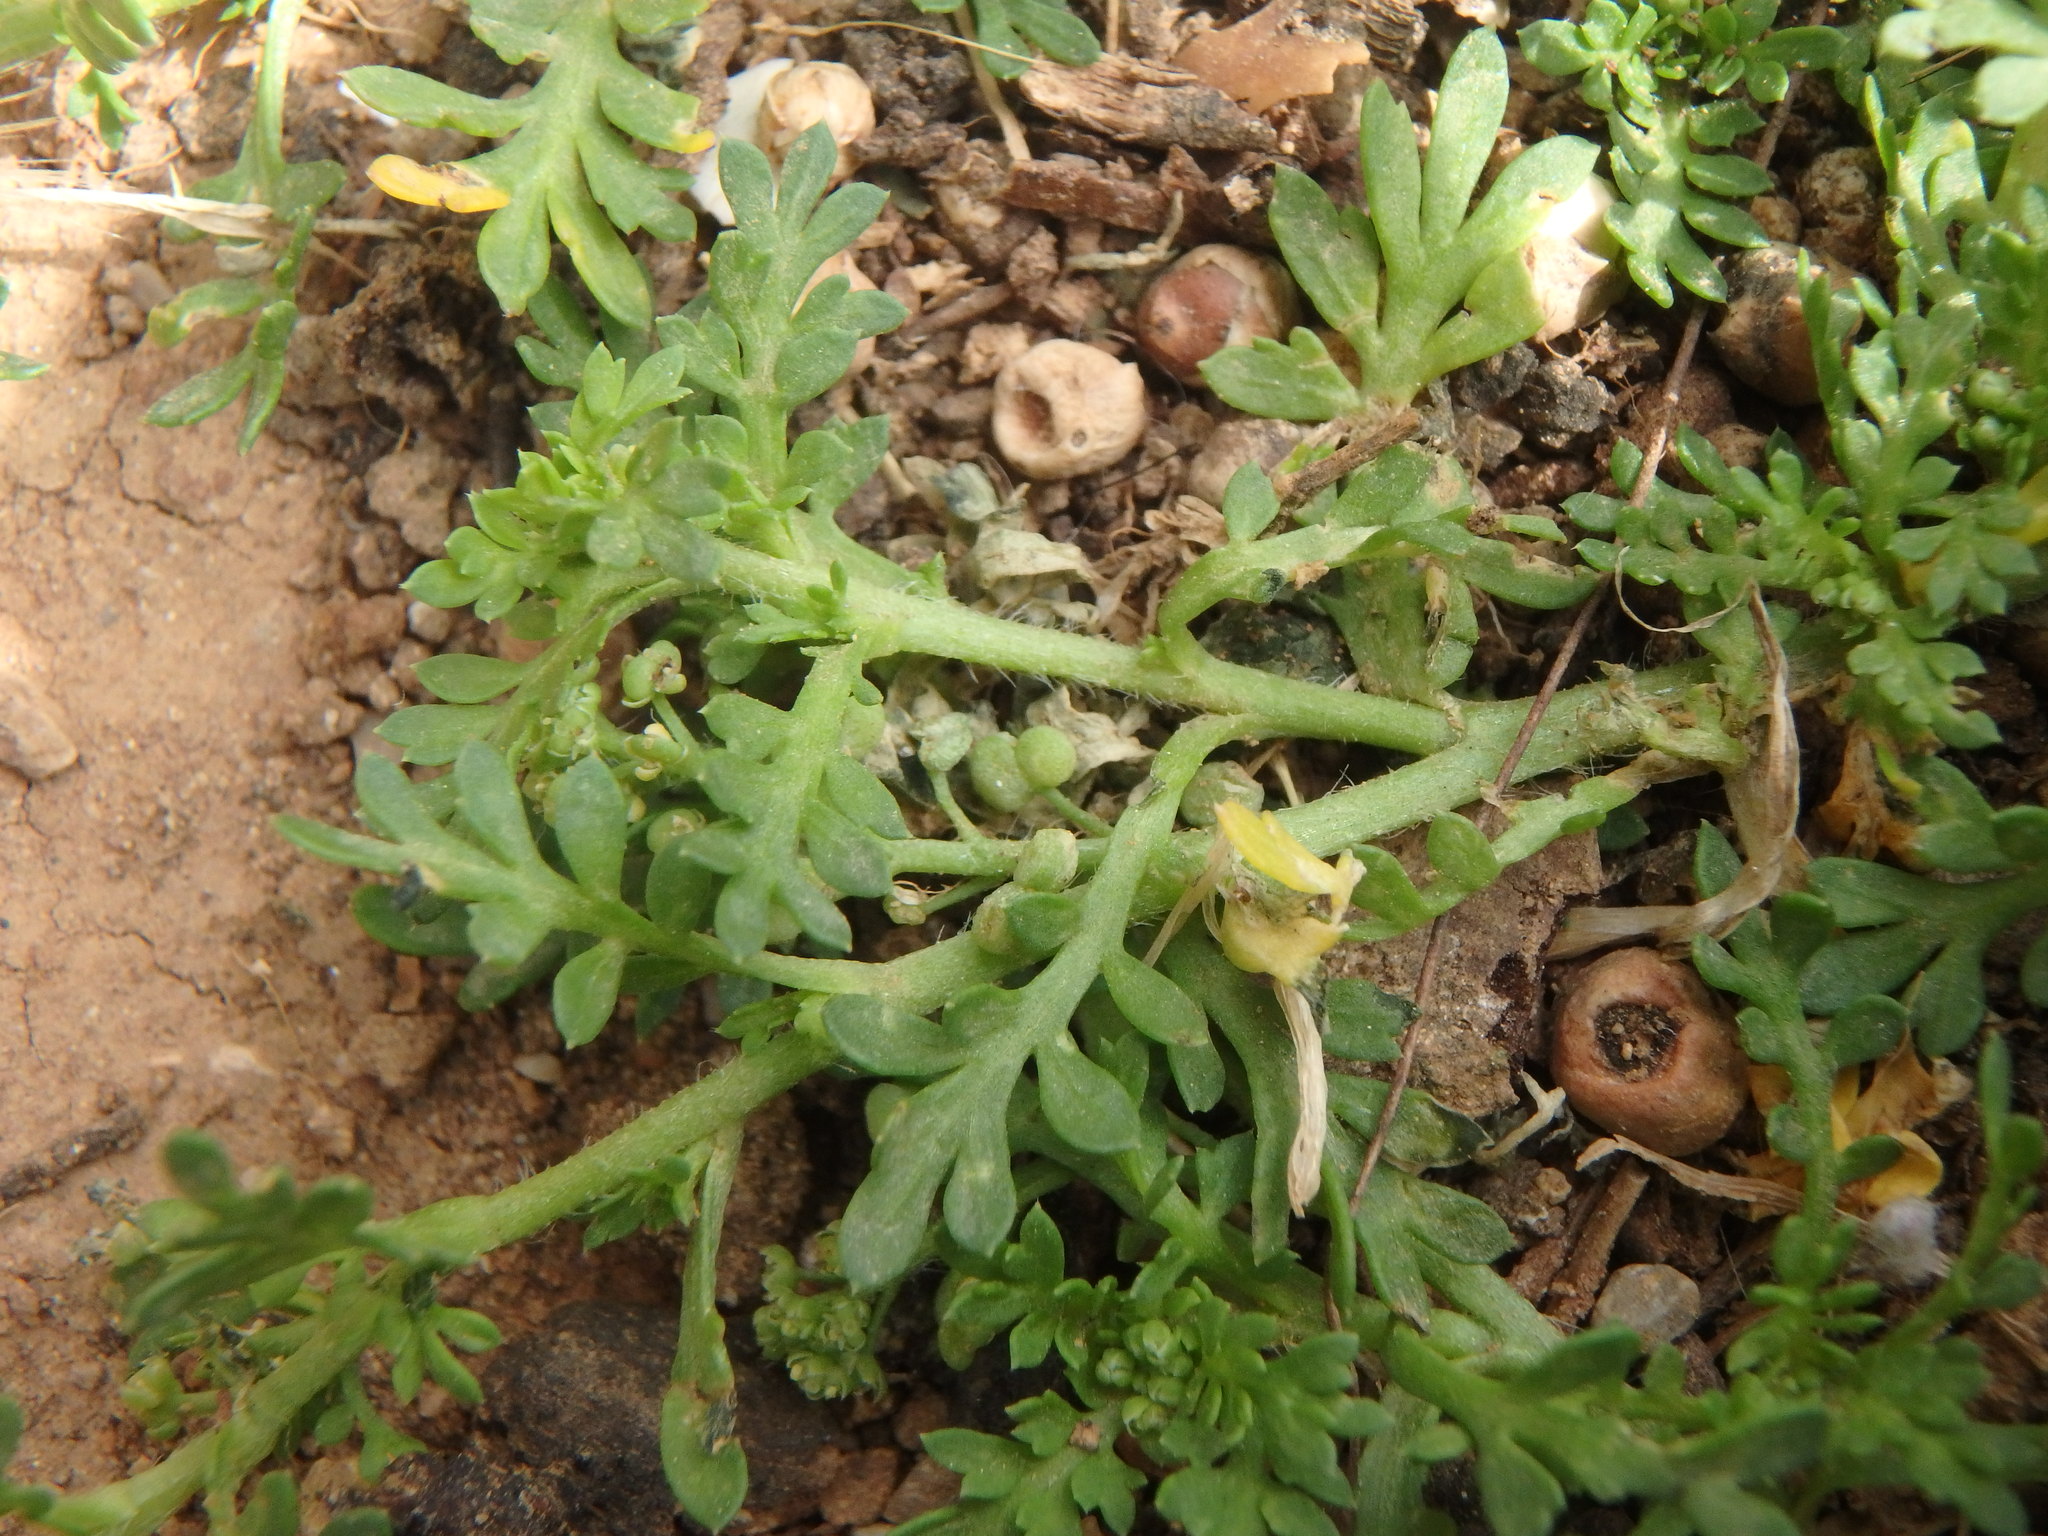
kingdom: Plantae
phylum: Tracheophyta
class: Magnoliopsida
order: Brassicales
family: Brassicaceae
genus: Lepidium
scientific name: Lepidium didymum
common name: Lesser swinecress
